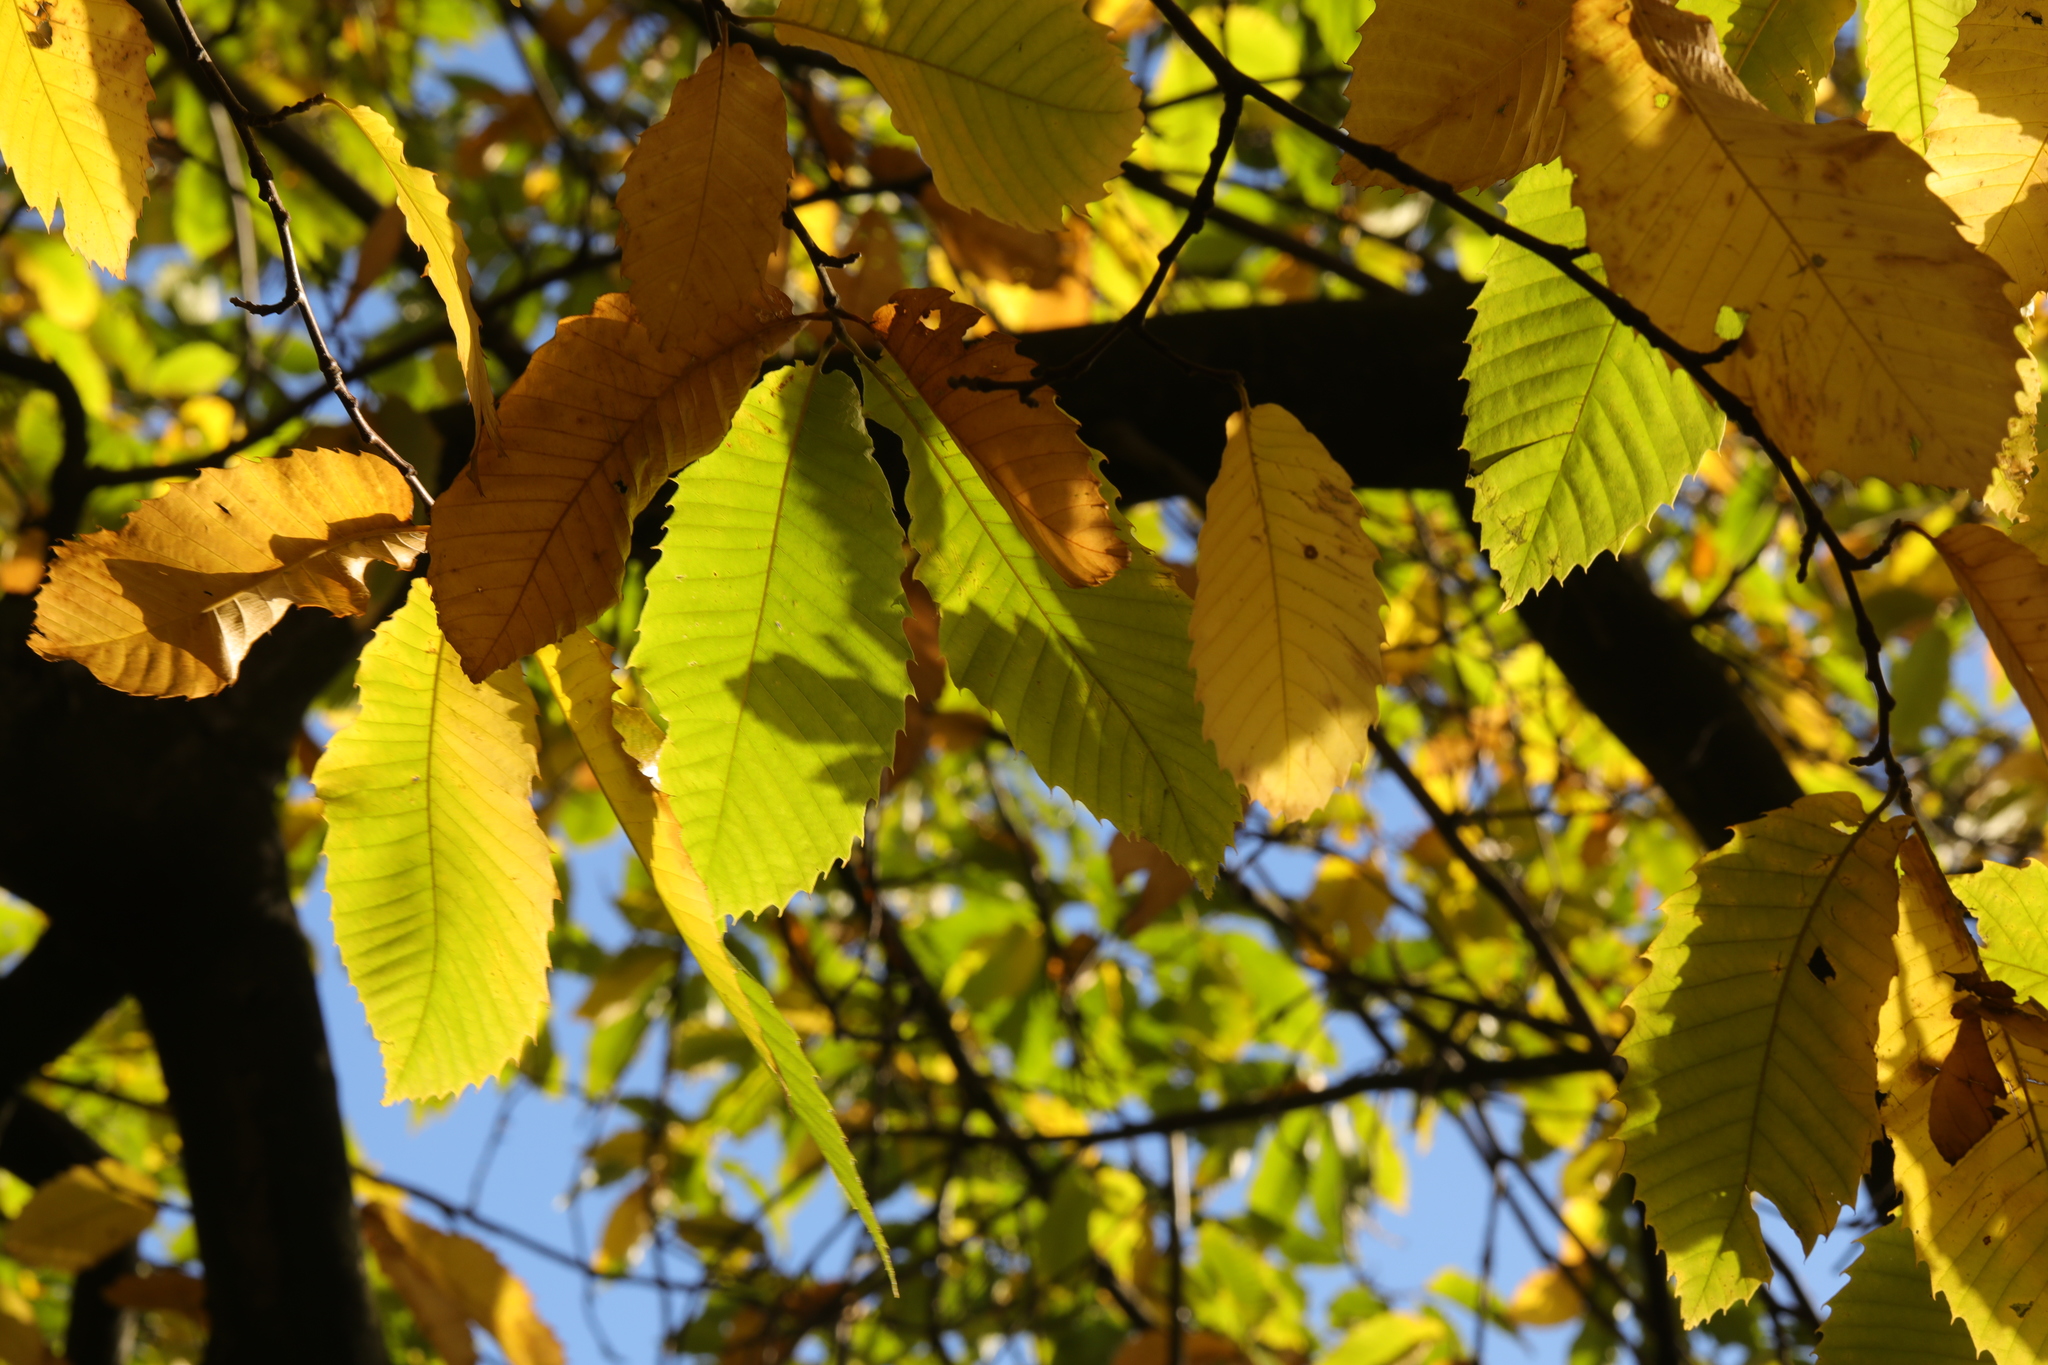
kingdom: Plantae
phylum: Tracheophyta
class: Magnoliopsida
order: Fagales
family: Fagaceae
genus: Castanea
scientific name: Castanea sativa
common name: Sweet chestnut
